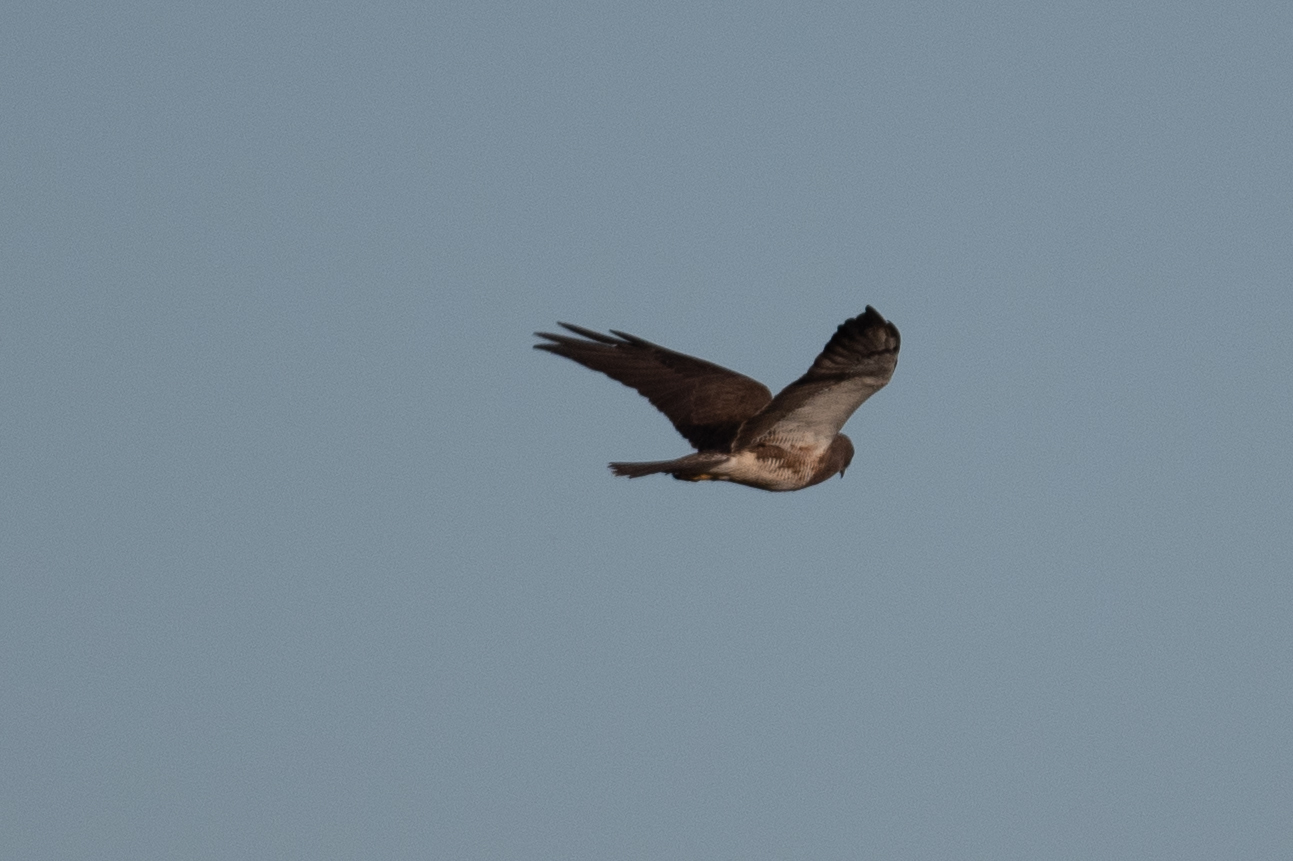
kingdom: Animalia
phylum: Chordata
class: Aves
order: Accipitriformes
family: Accipitridae
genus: Buteo
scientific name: Buteo swainsoni
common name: Swainson's hawk
